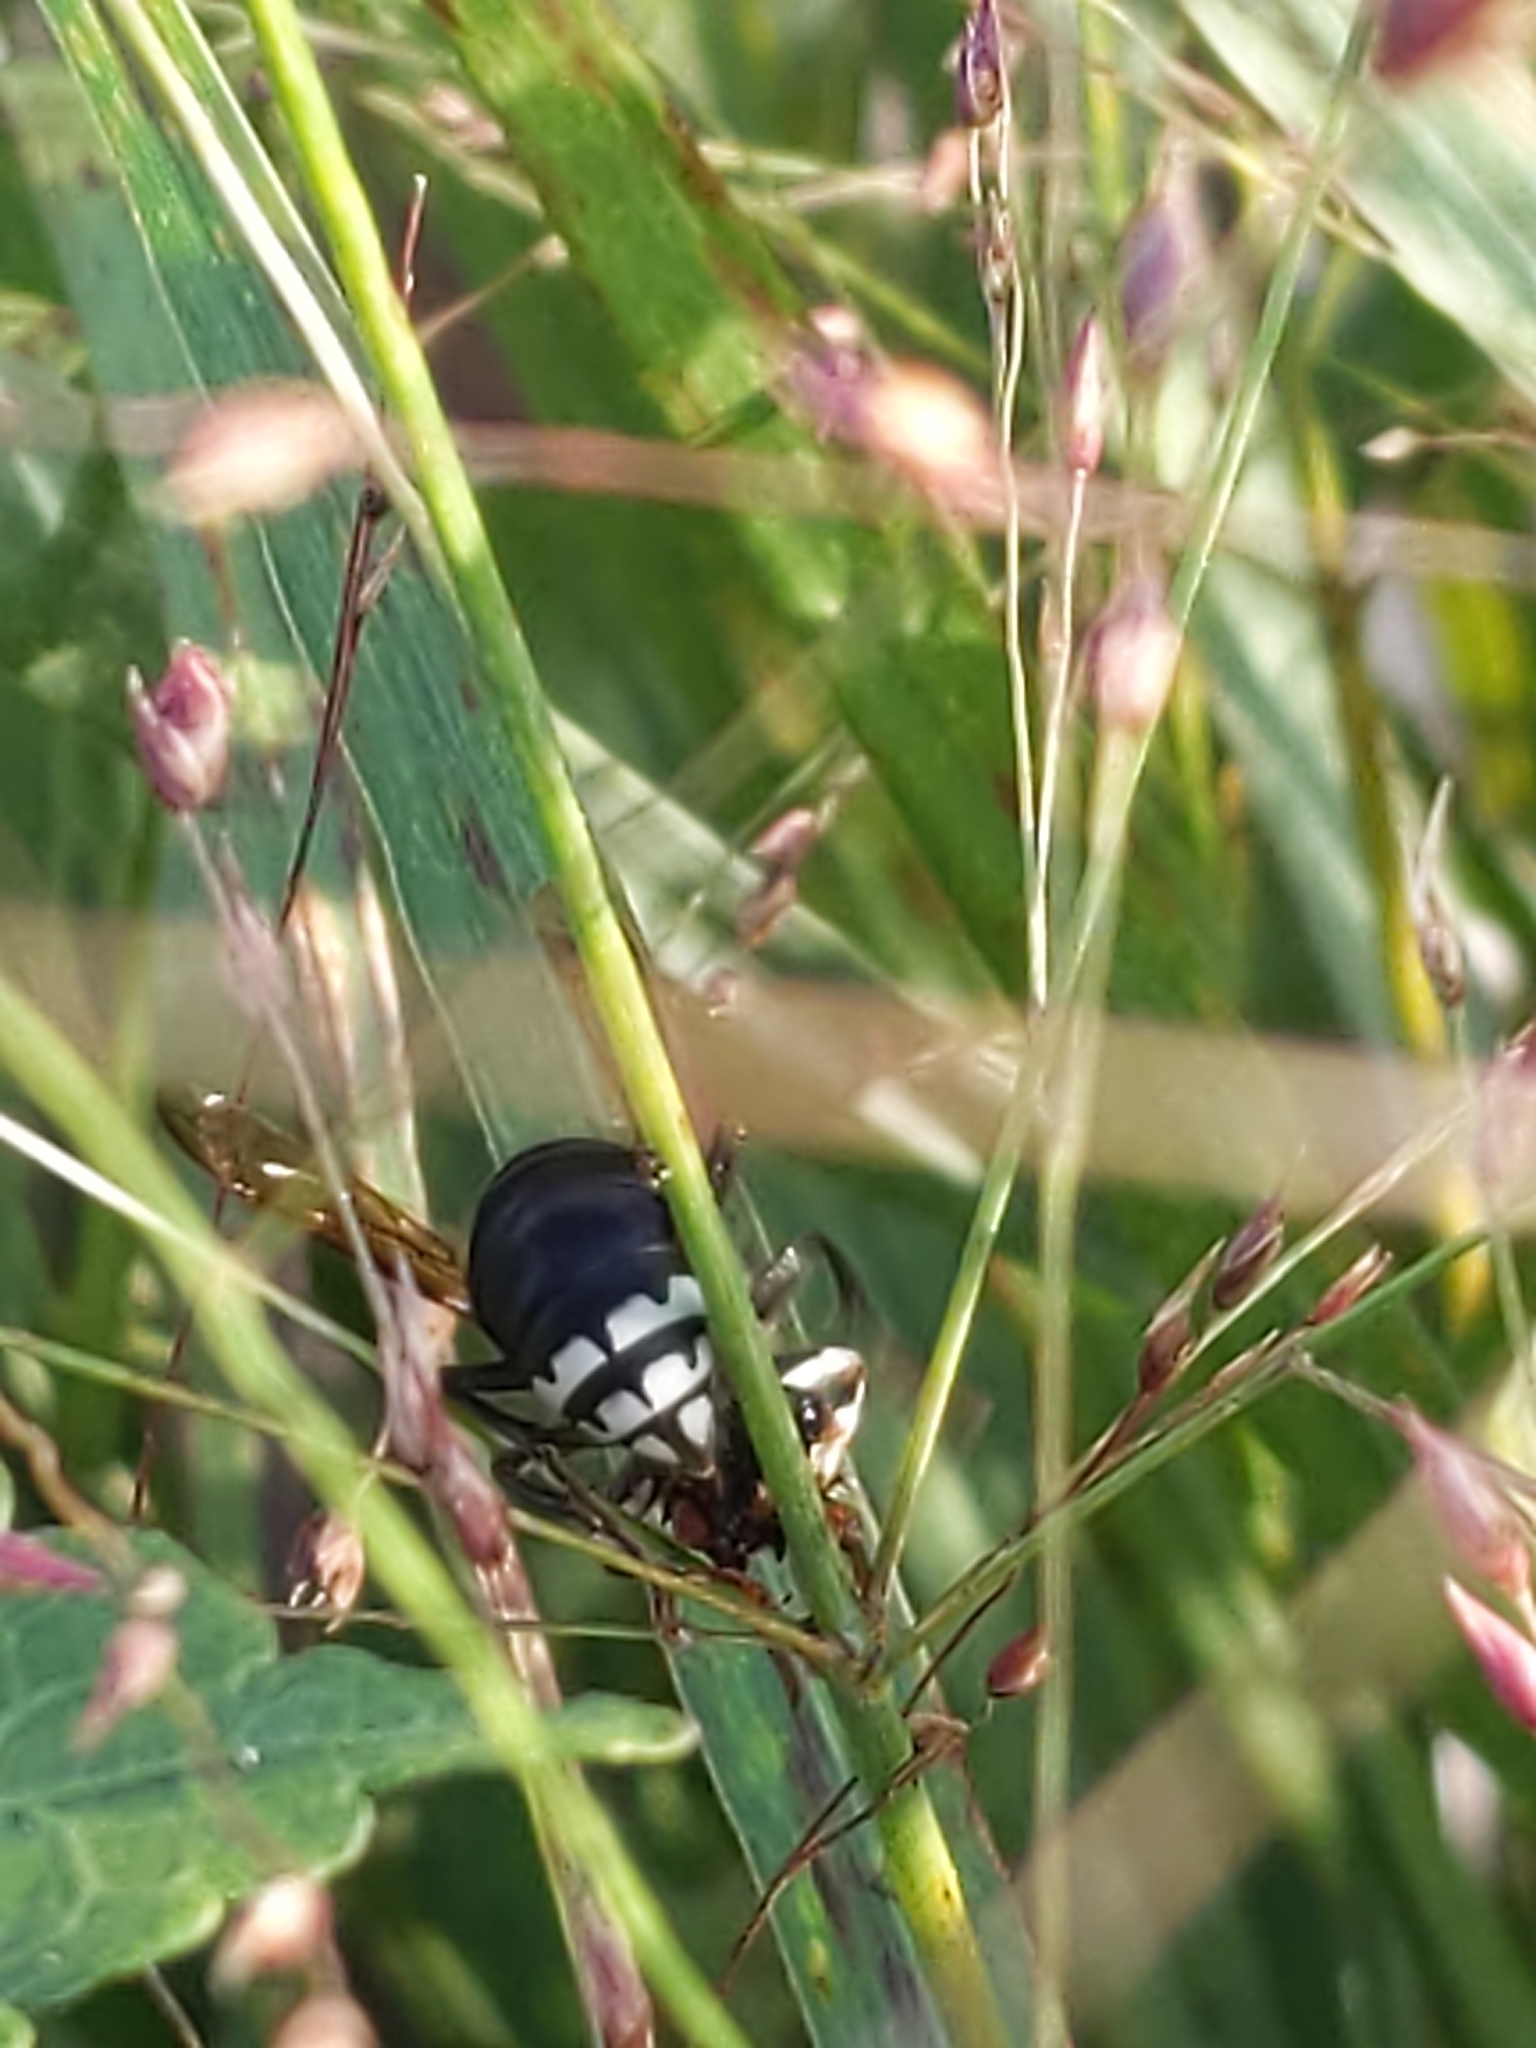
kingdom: Animalia
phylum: Arthropoda
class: Insecta
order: Hymenoptera
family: Vespidae
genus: Dolichovespula
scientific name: Dolichovespula maculata
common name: Bald-faced hornet
